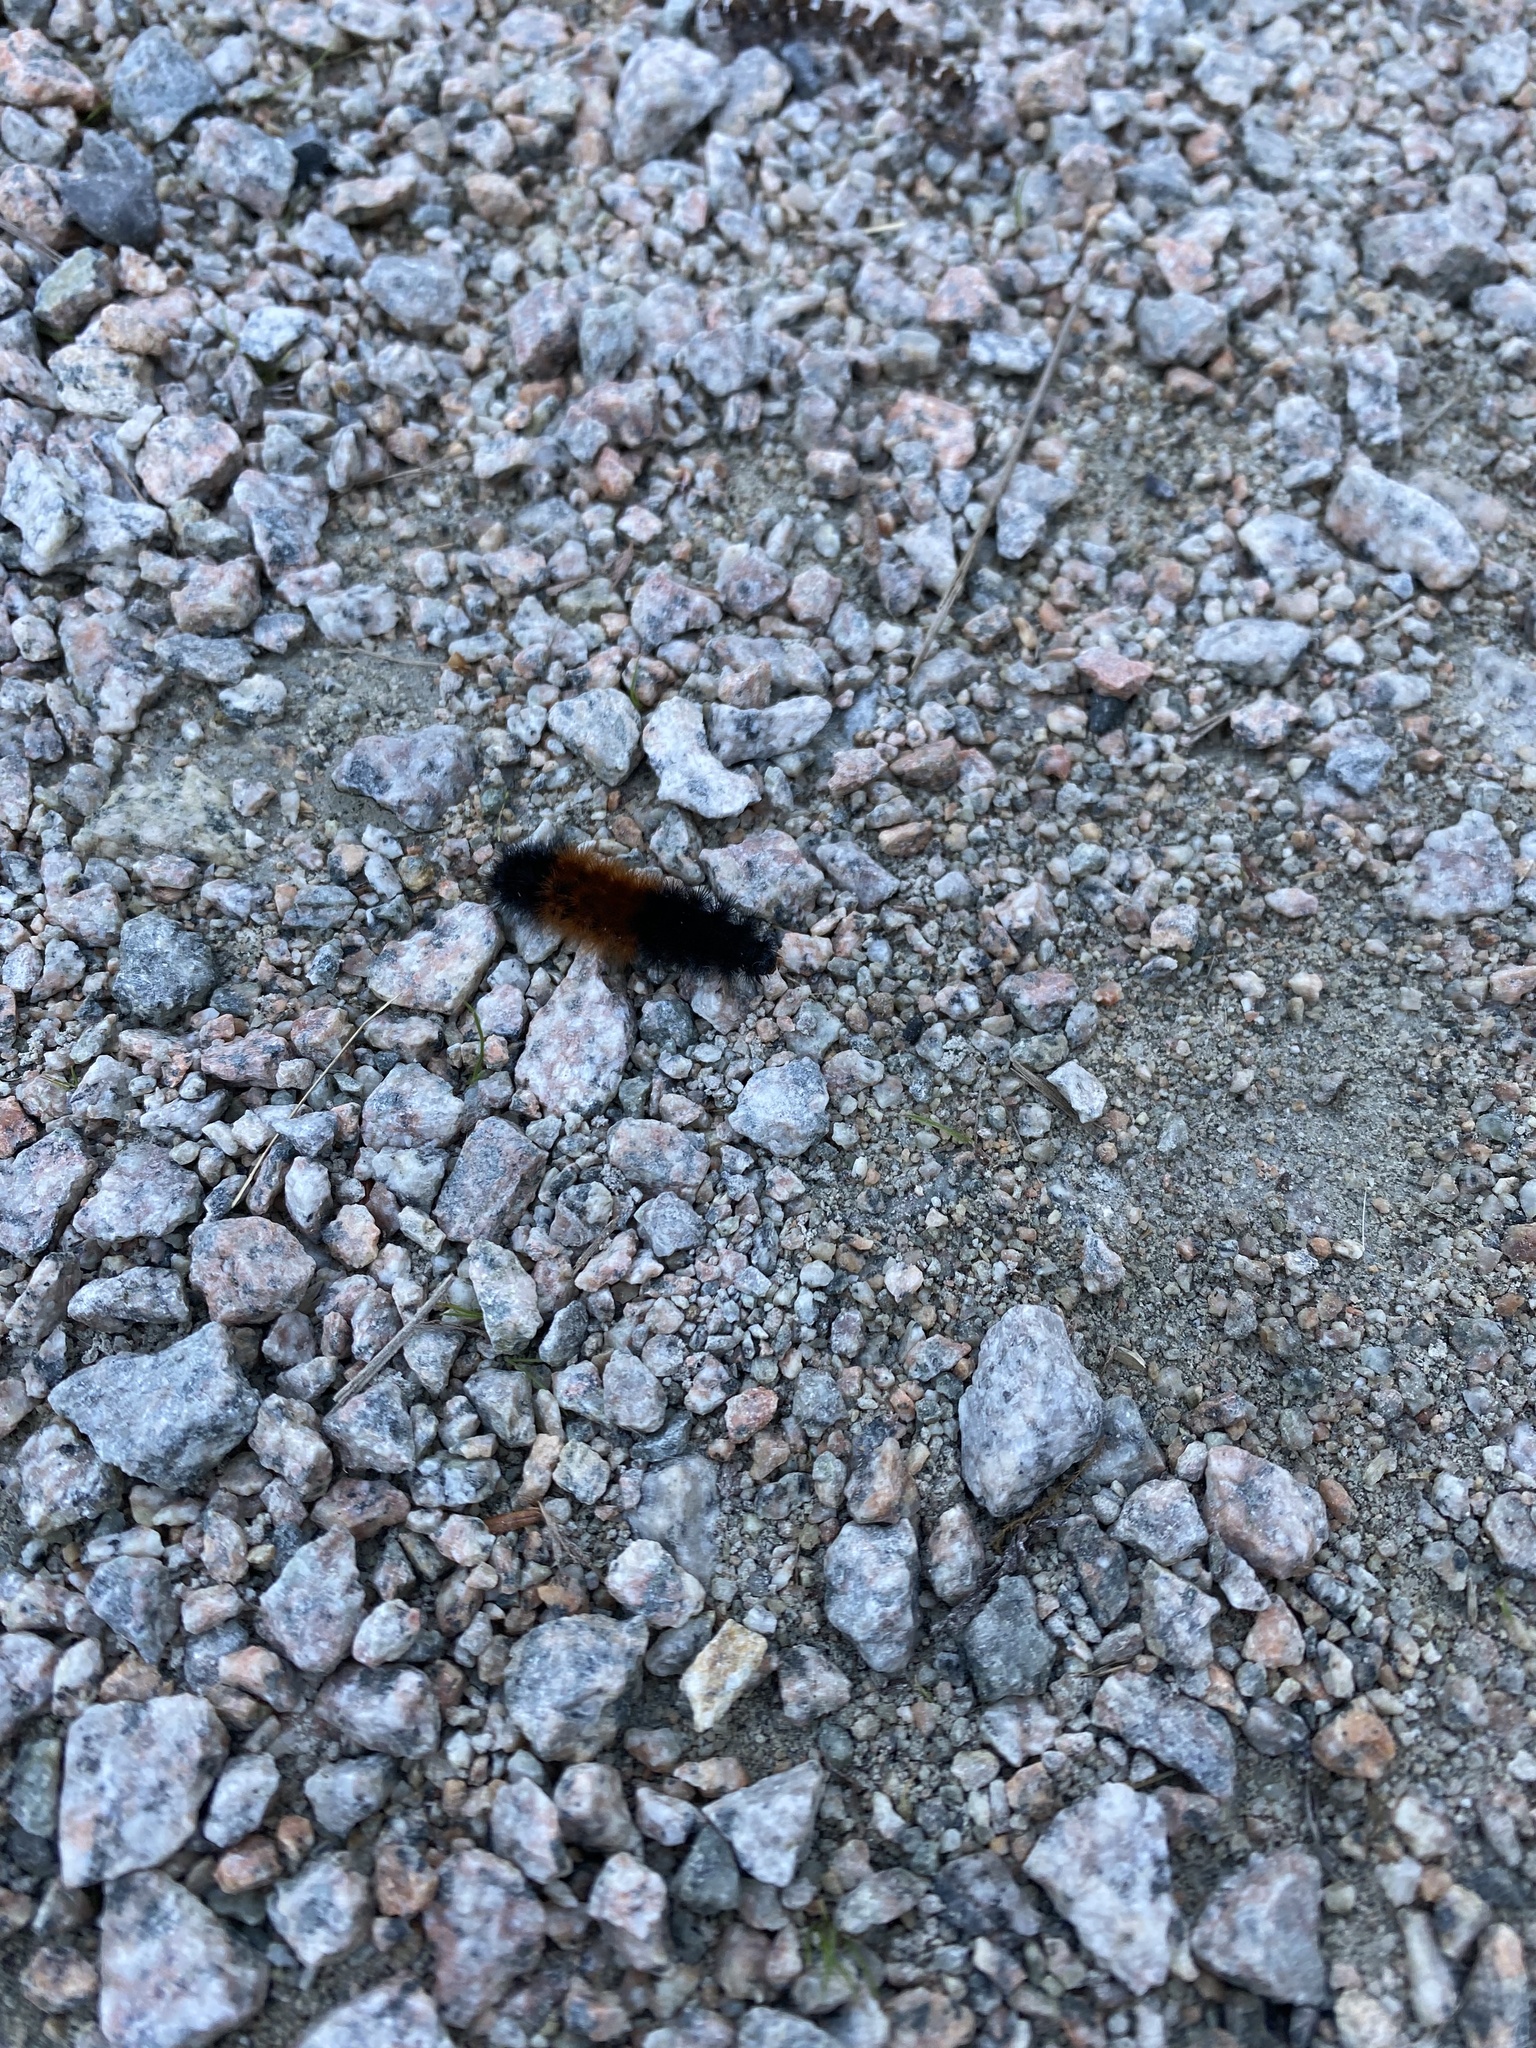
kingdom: Animalia
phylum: Arthropoda
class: Insecta
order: Lepidoptera
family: Erebidae
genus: Pyrrharctia
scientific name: Pyrrharctia isabella
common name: Isabella tiger moth
